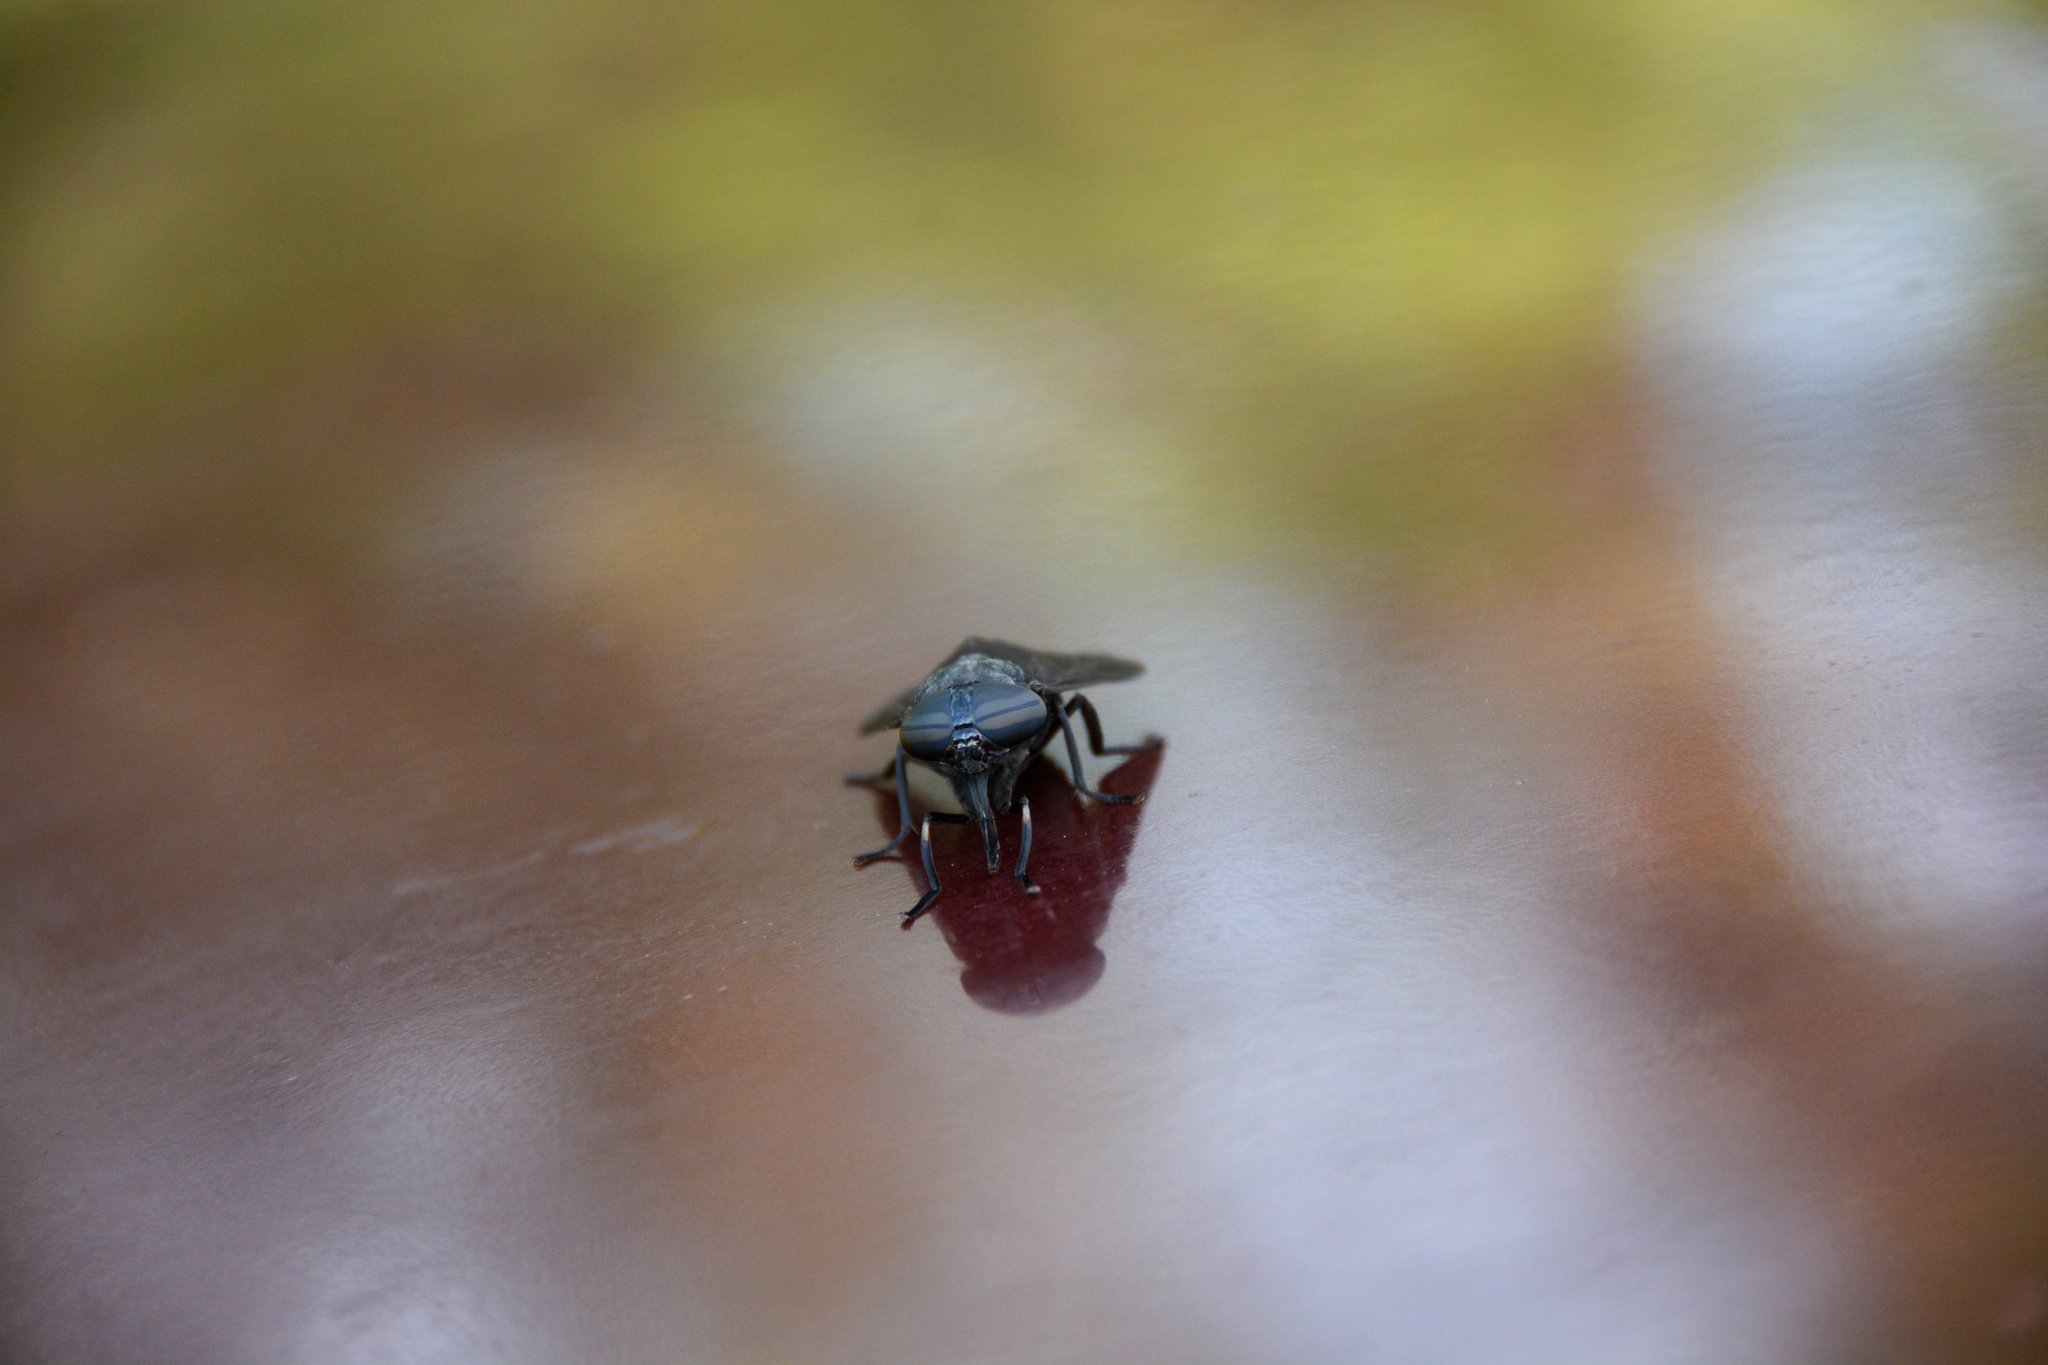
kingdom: Animalia
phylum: Arthropoda
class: Insecta
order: Diptera
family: Tabanidae
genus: Tabanus
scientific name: Tabanus atratus
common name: Black horse fly
